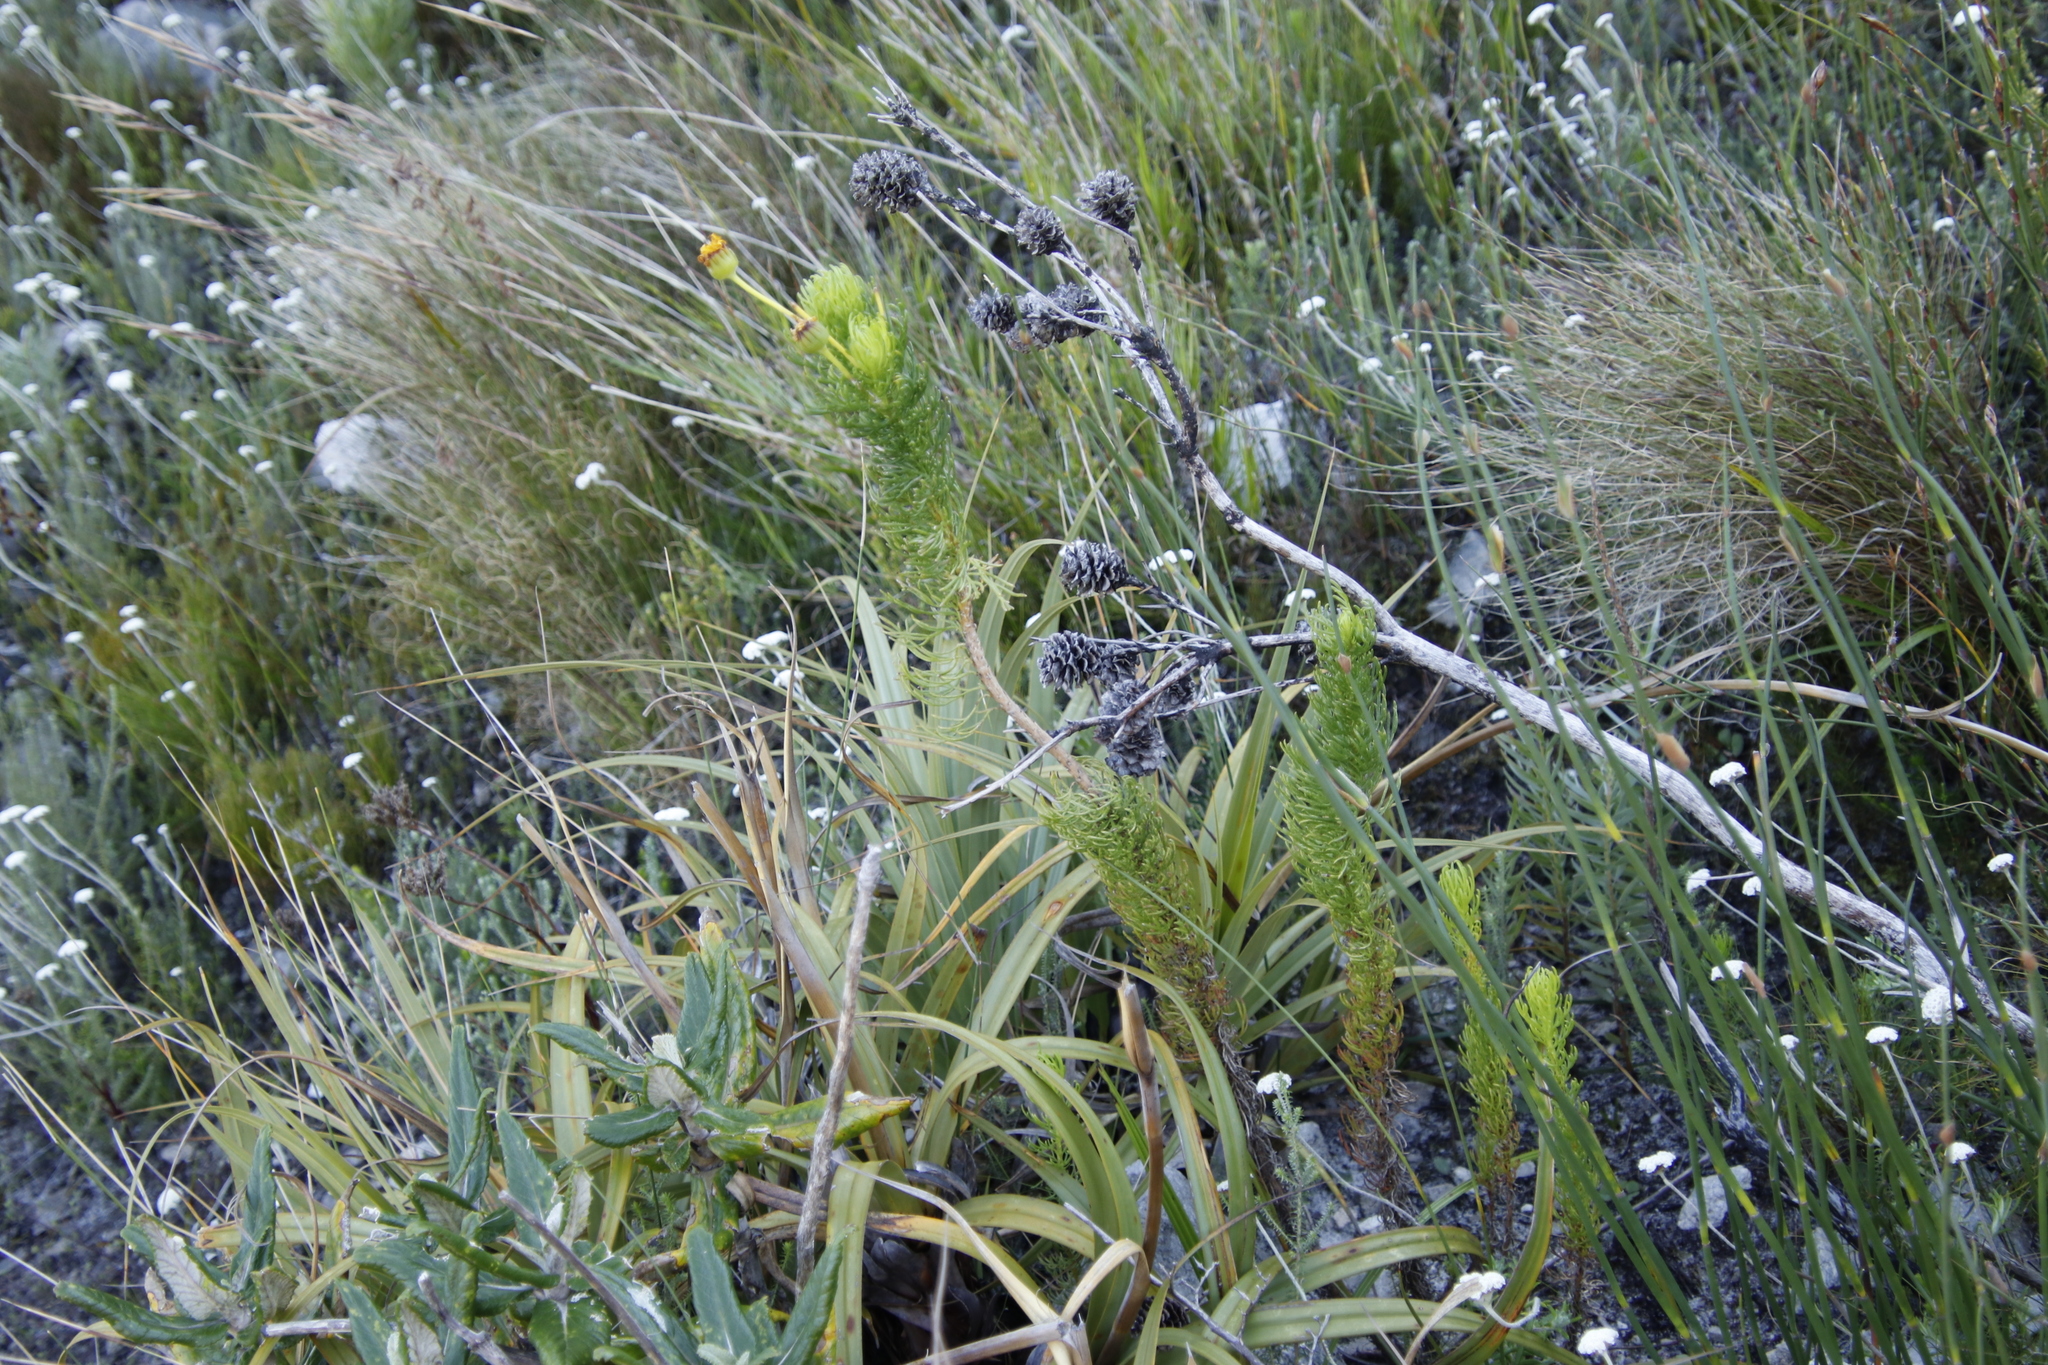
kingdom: Plantae
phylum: Tracheophyta
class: Magnoliopsida
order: Asterales
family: Asteraceae
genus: Euryops
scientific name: Euryops abrotanifolius
